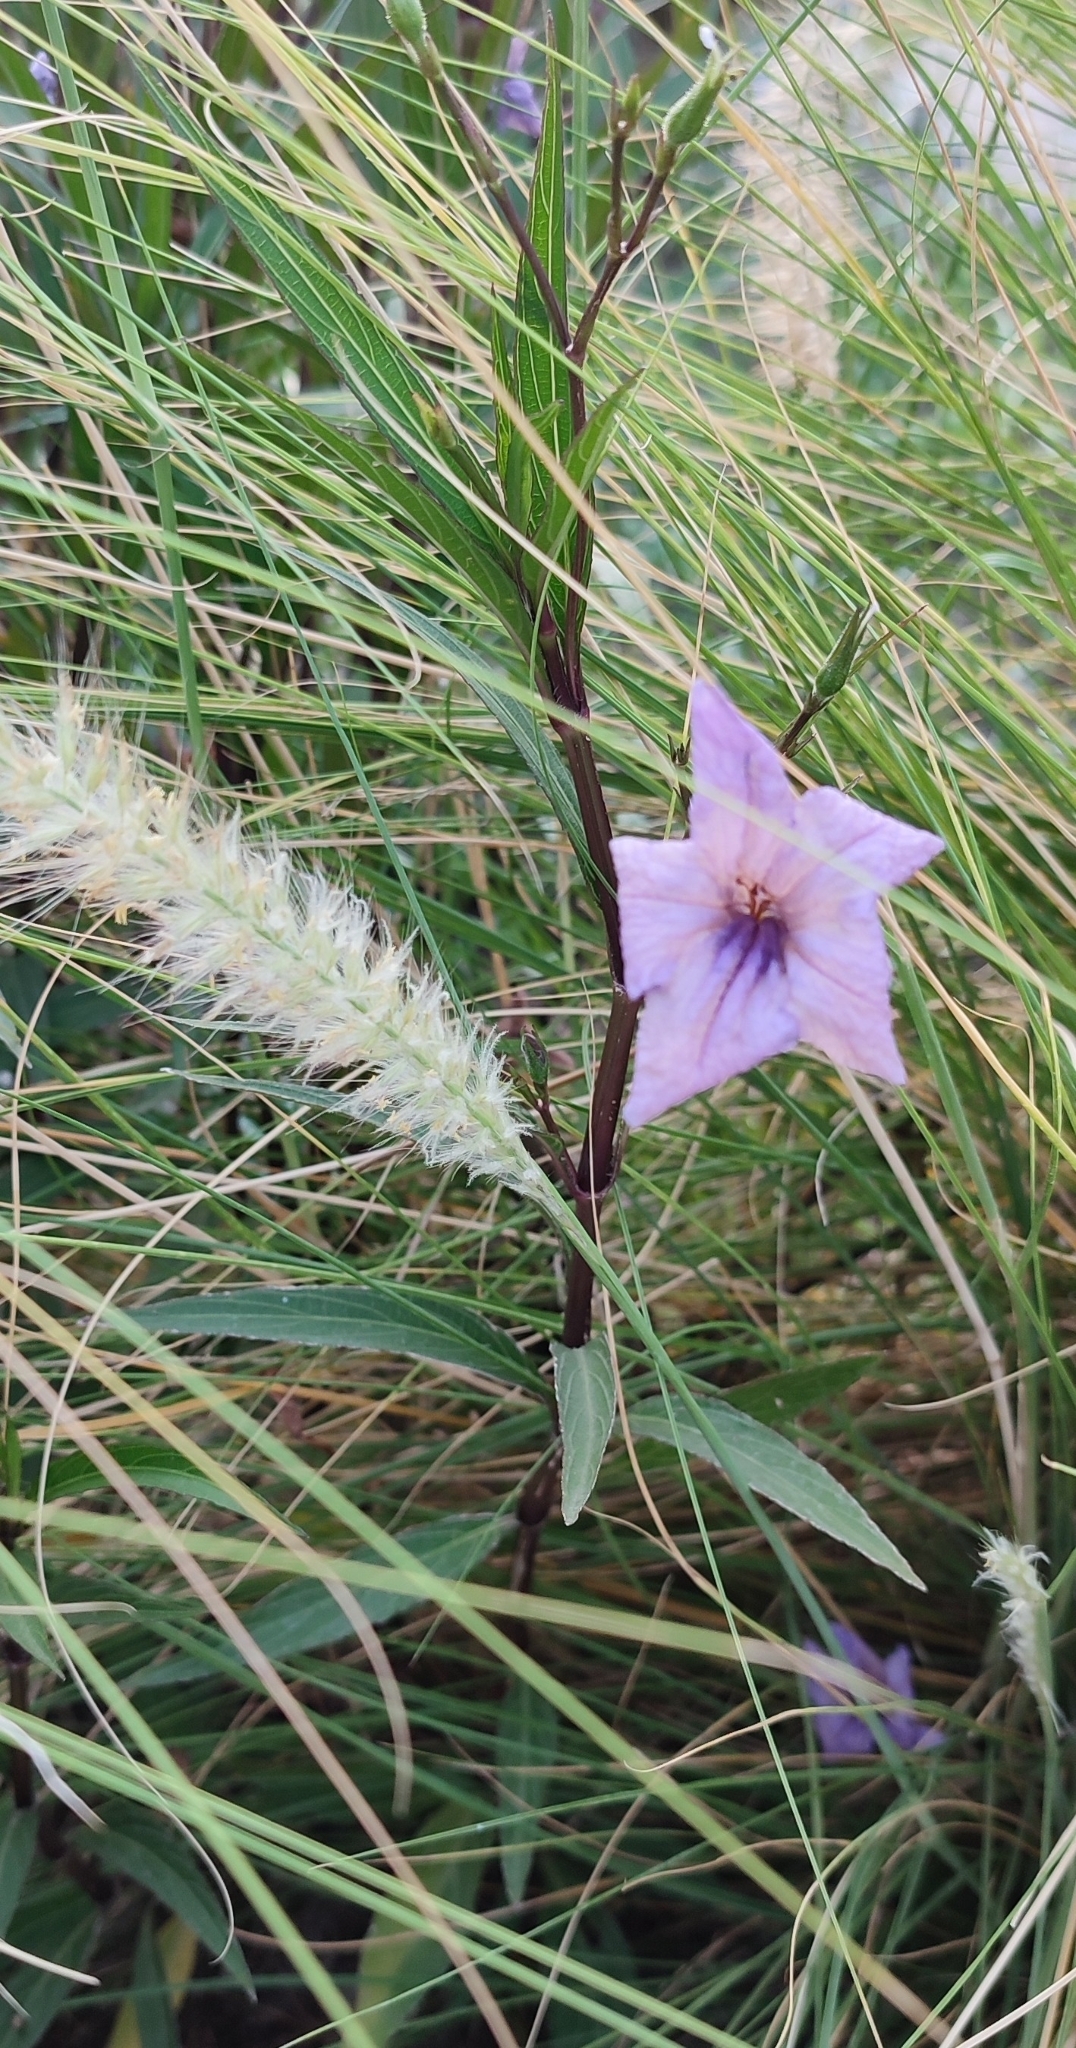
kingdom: Plantae
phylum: Tracheophyta
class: Magnoliopsida
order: Lamiales
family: Acanthaceae
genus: Ruellia
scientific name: Ruellia simplex
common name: Softseed wild petunia
